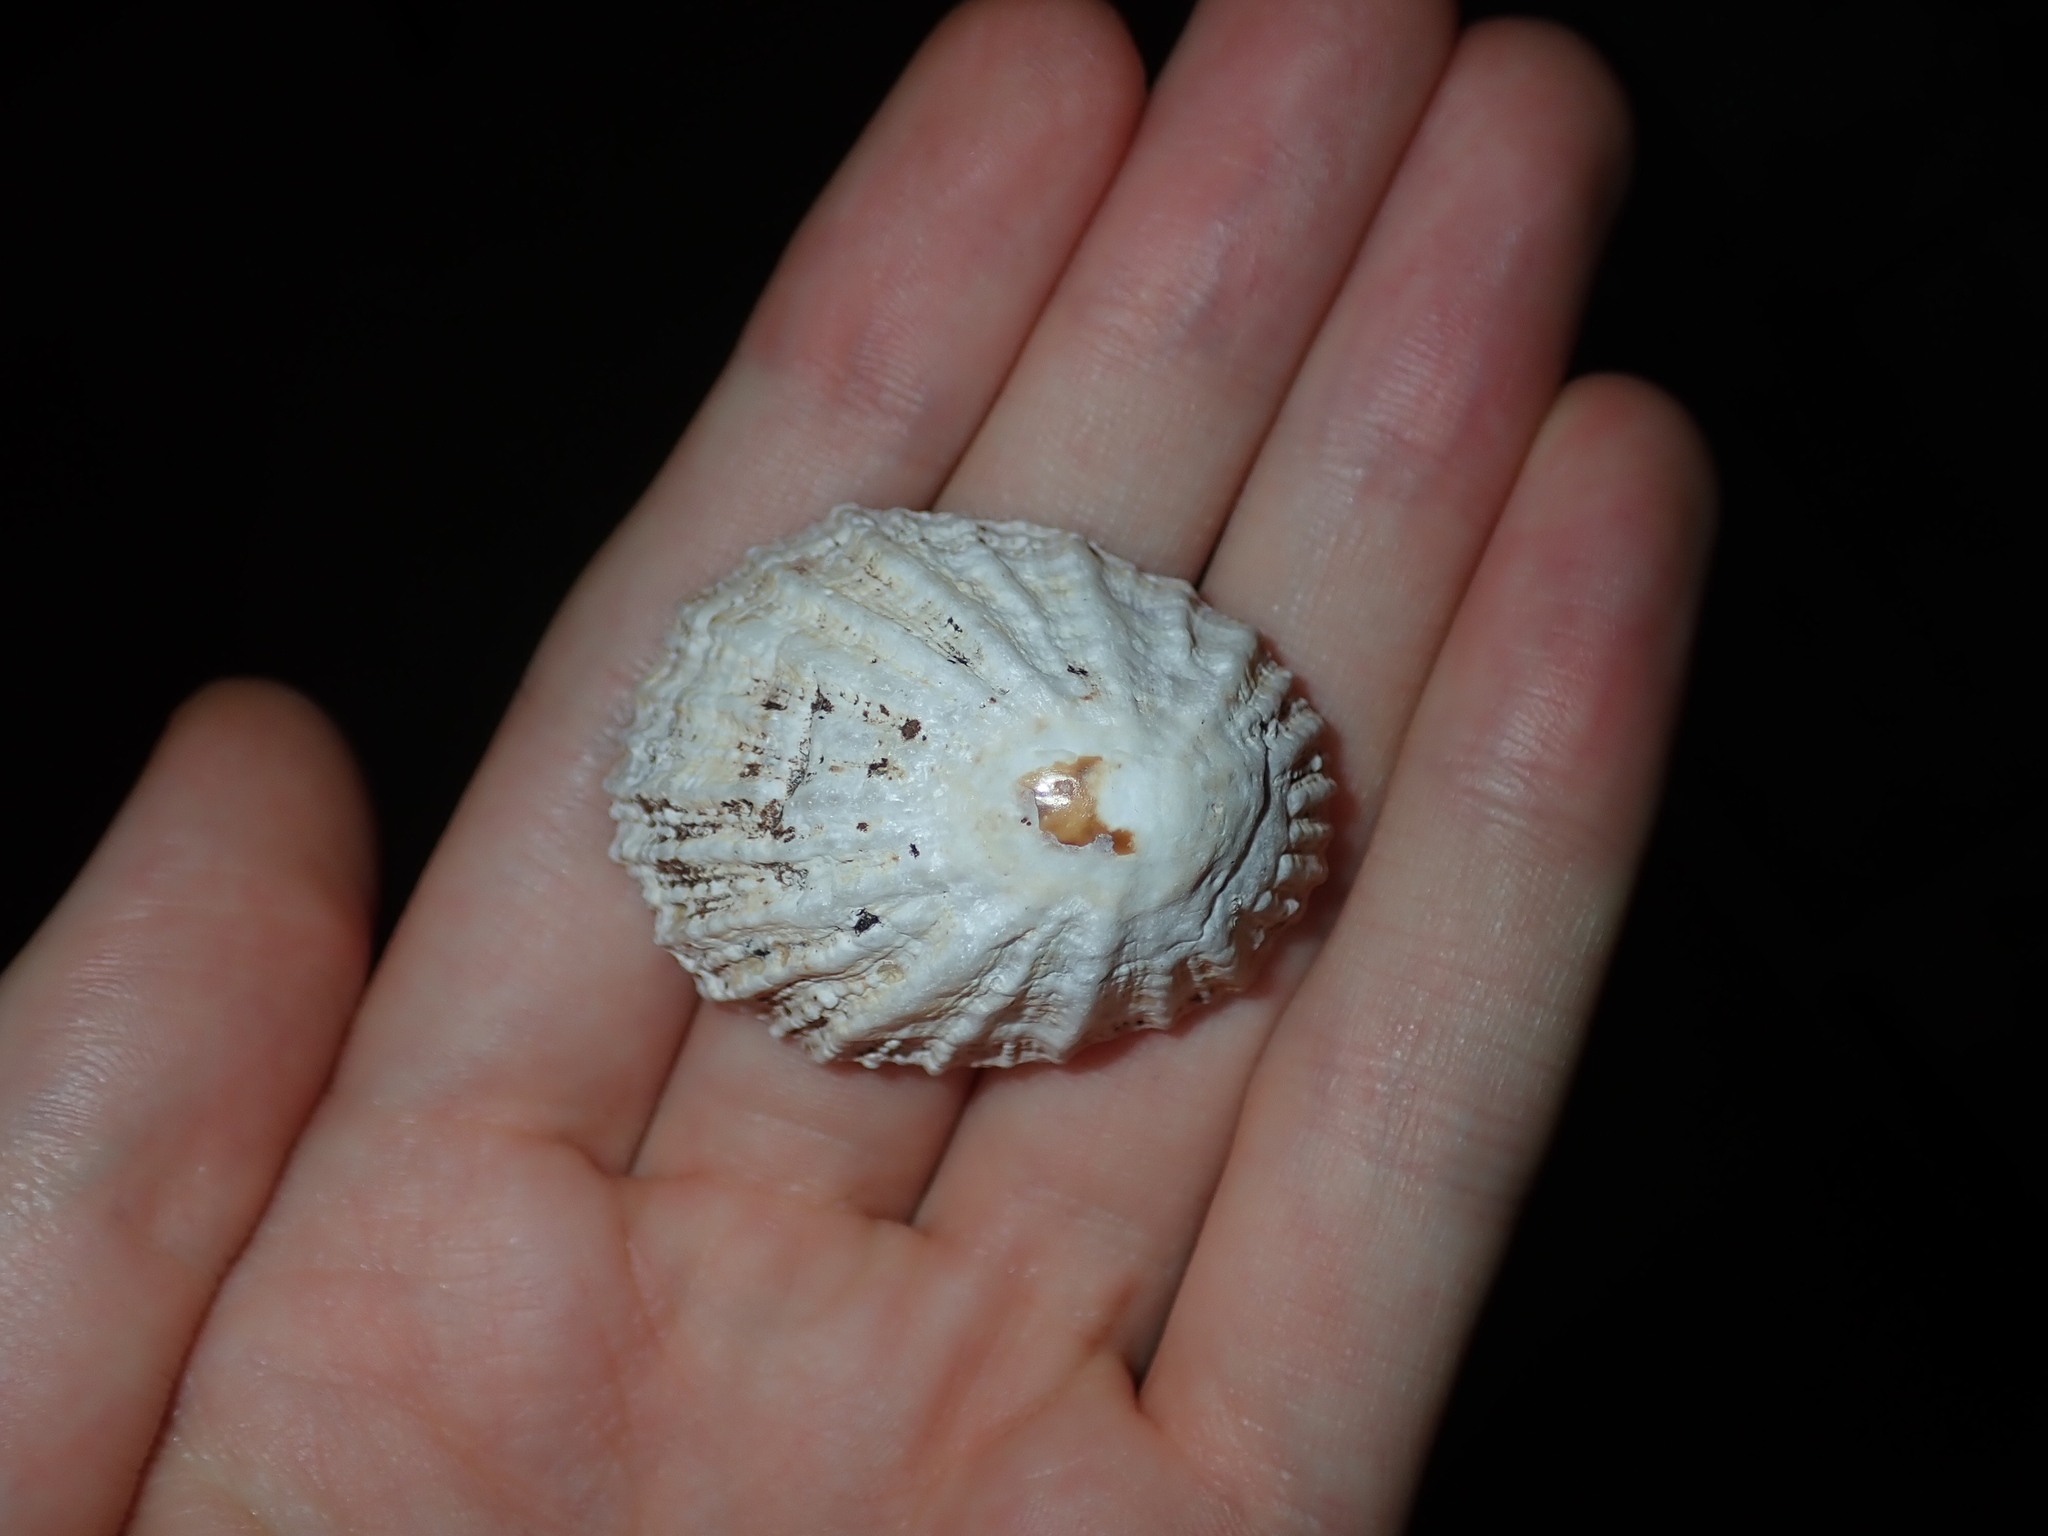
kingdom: Animalia
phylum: Mollusca
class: Gastropoda
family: Patellidae
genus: Scutellastra
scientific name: Scutellastra peronii
